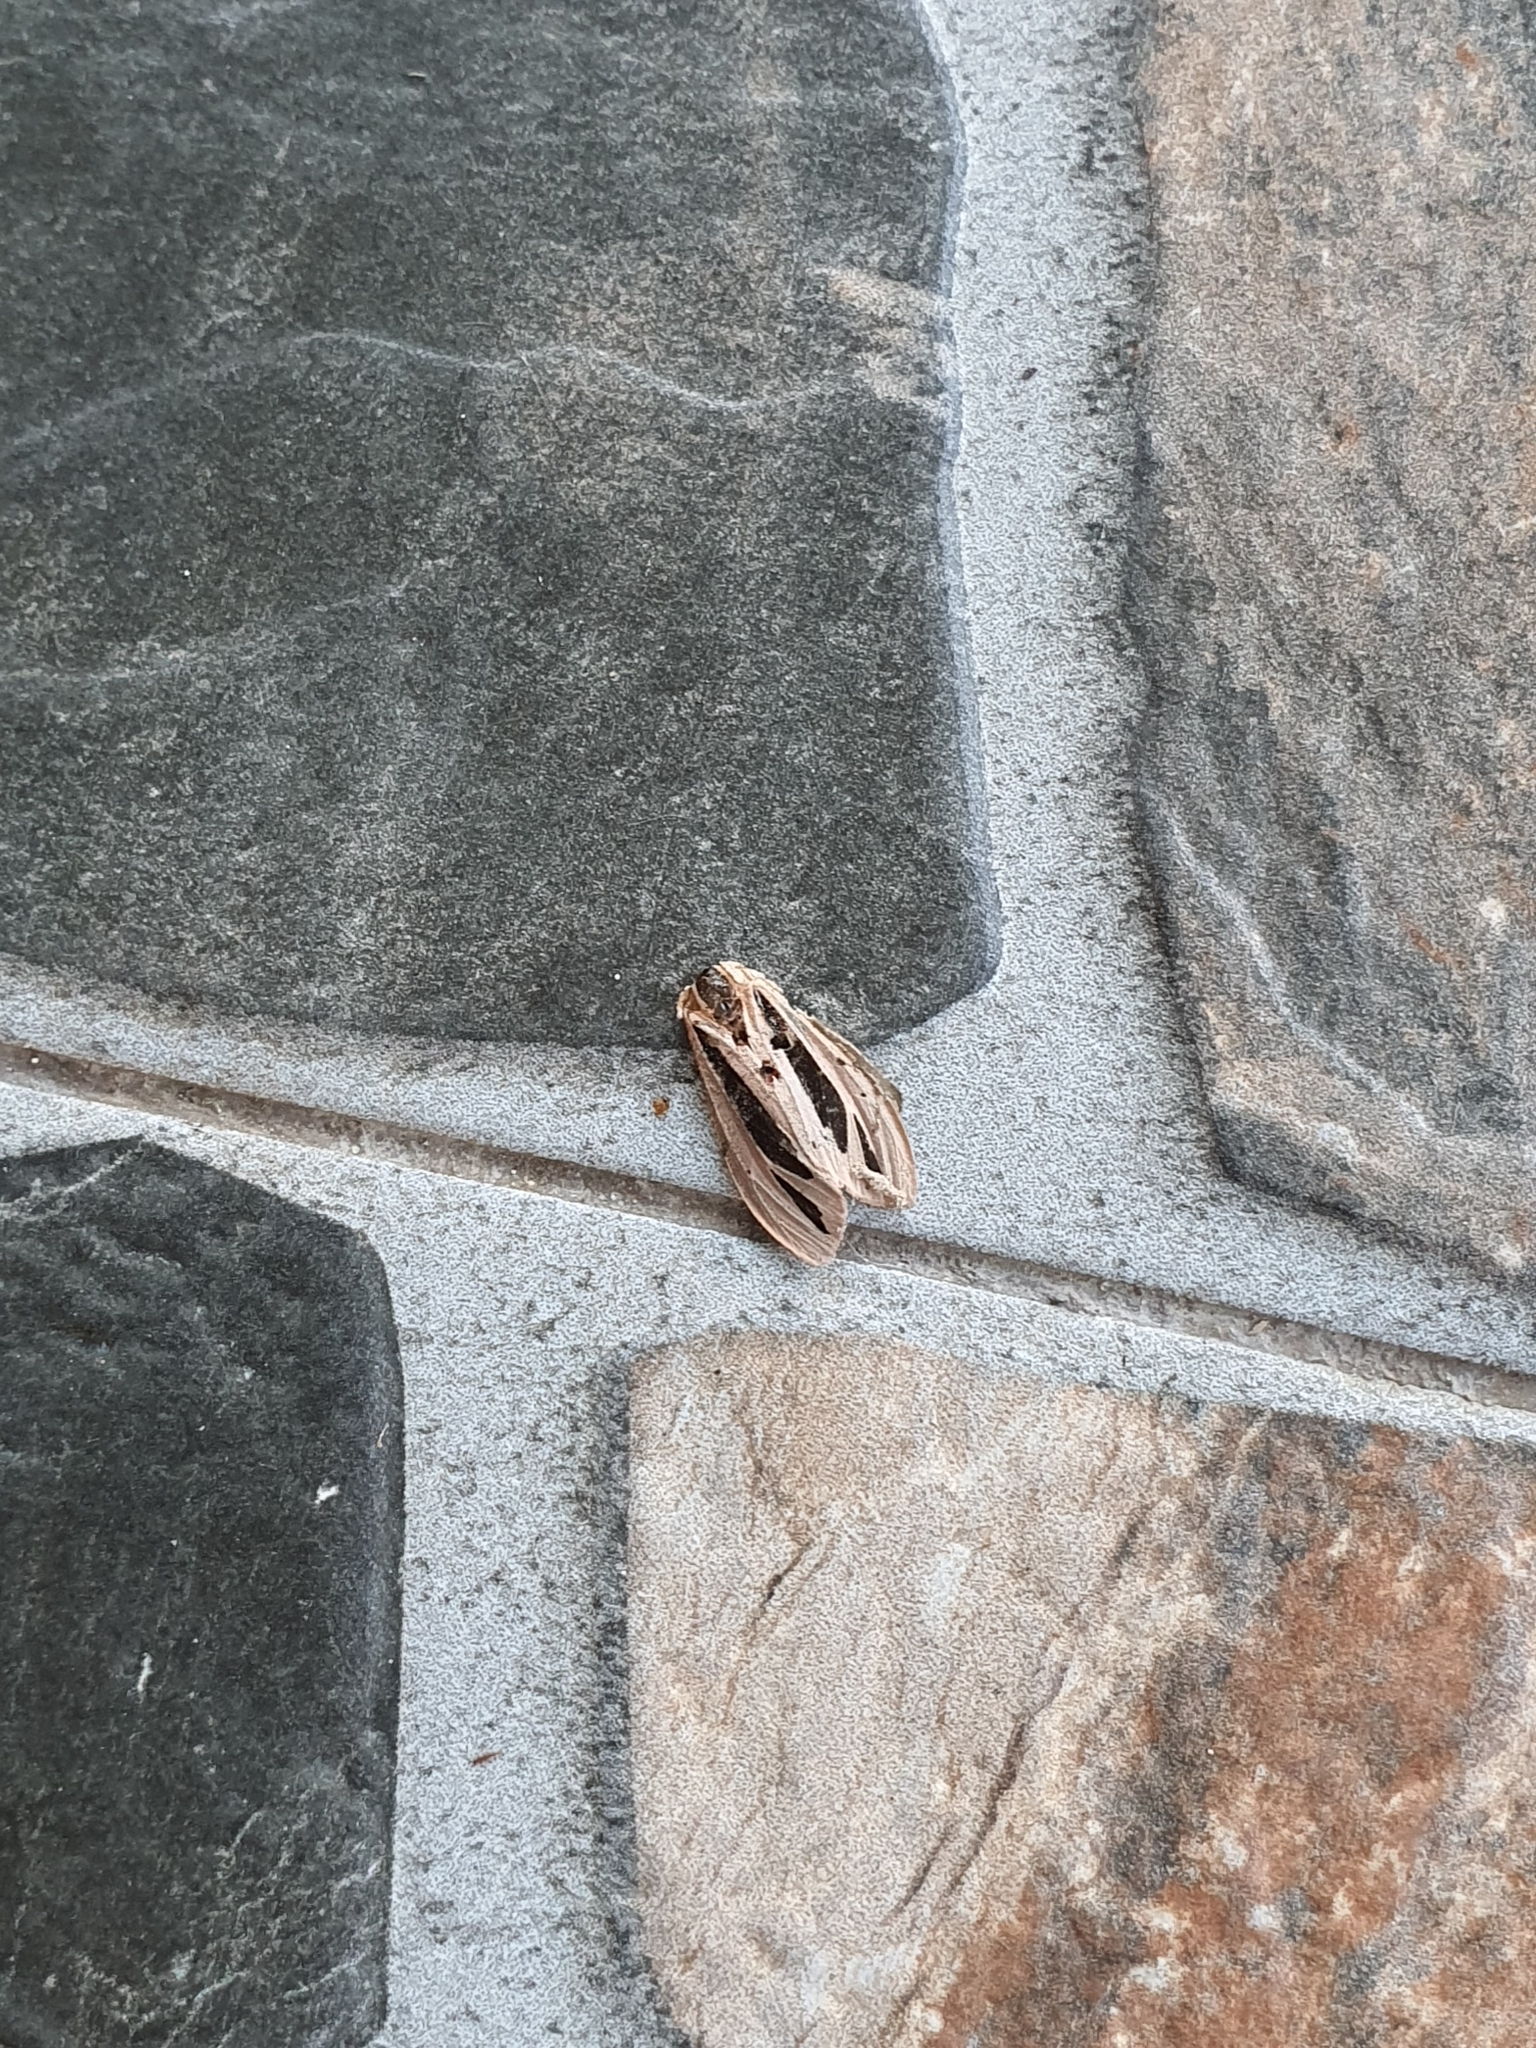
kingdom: Animalia
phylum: Arthropoda
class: Insecta
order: Lepidoptera
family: Erebidae
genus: Creatonotos
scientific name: Creatonotos gangis
